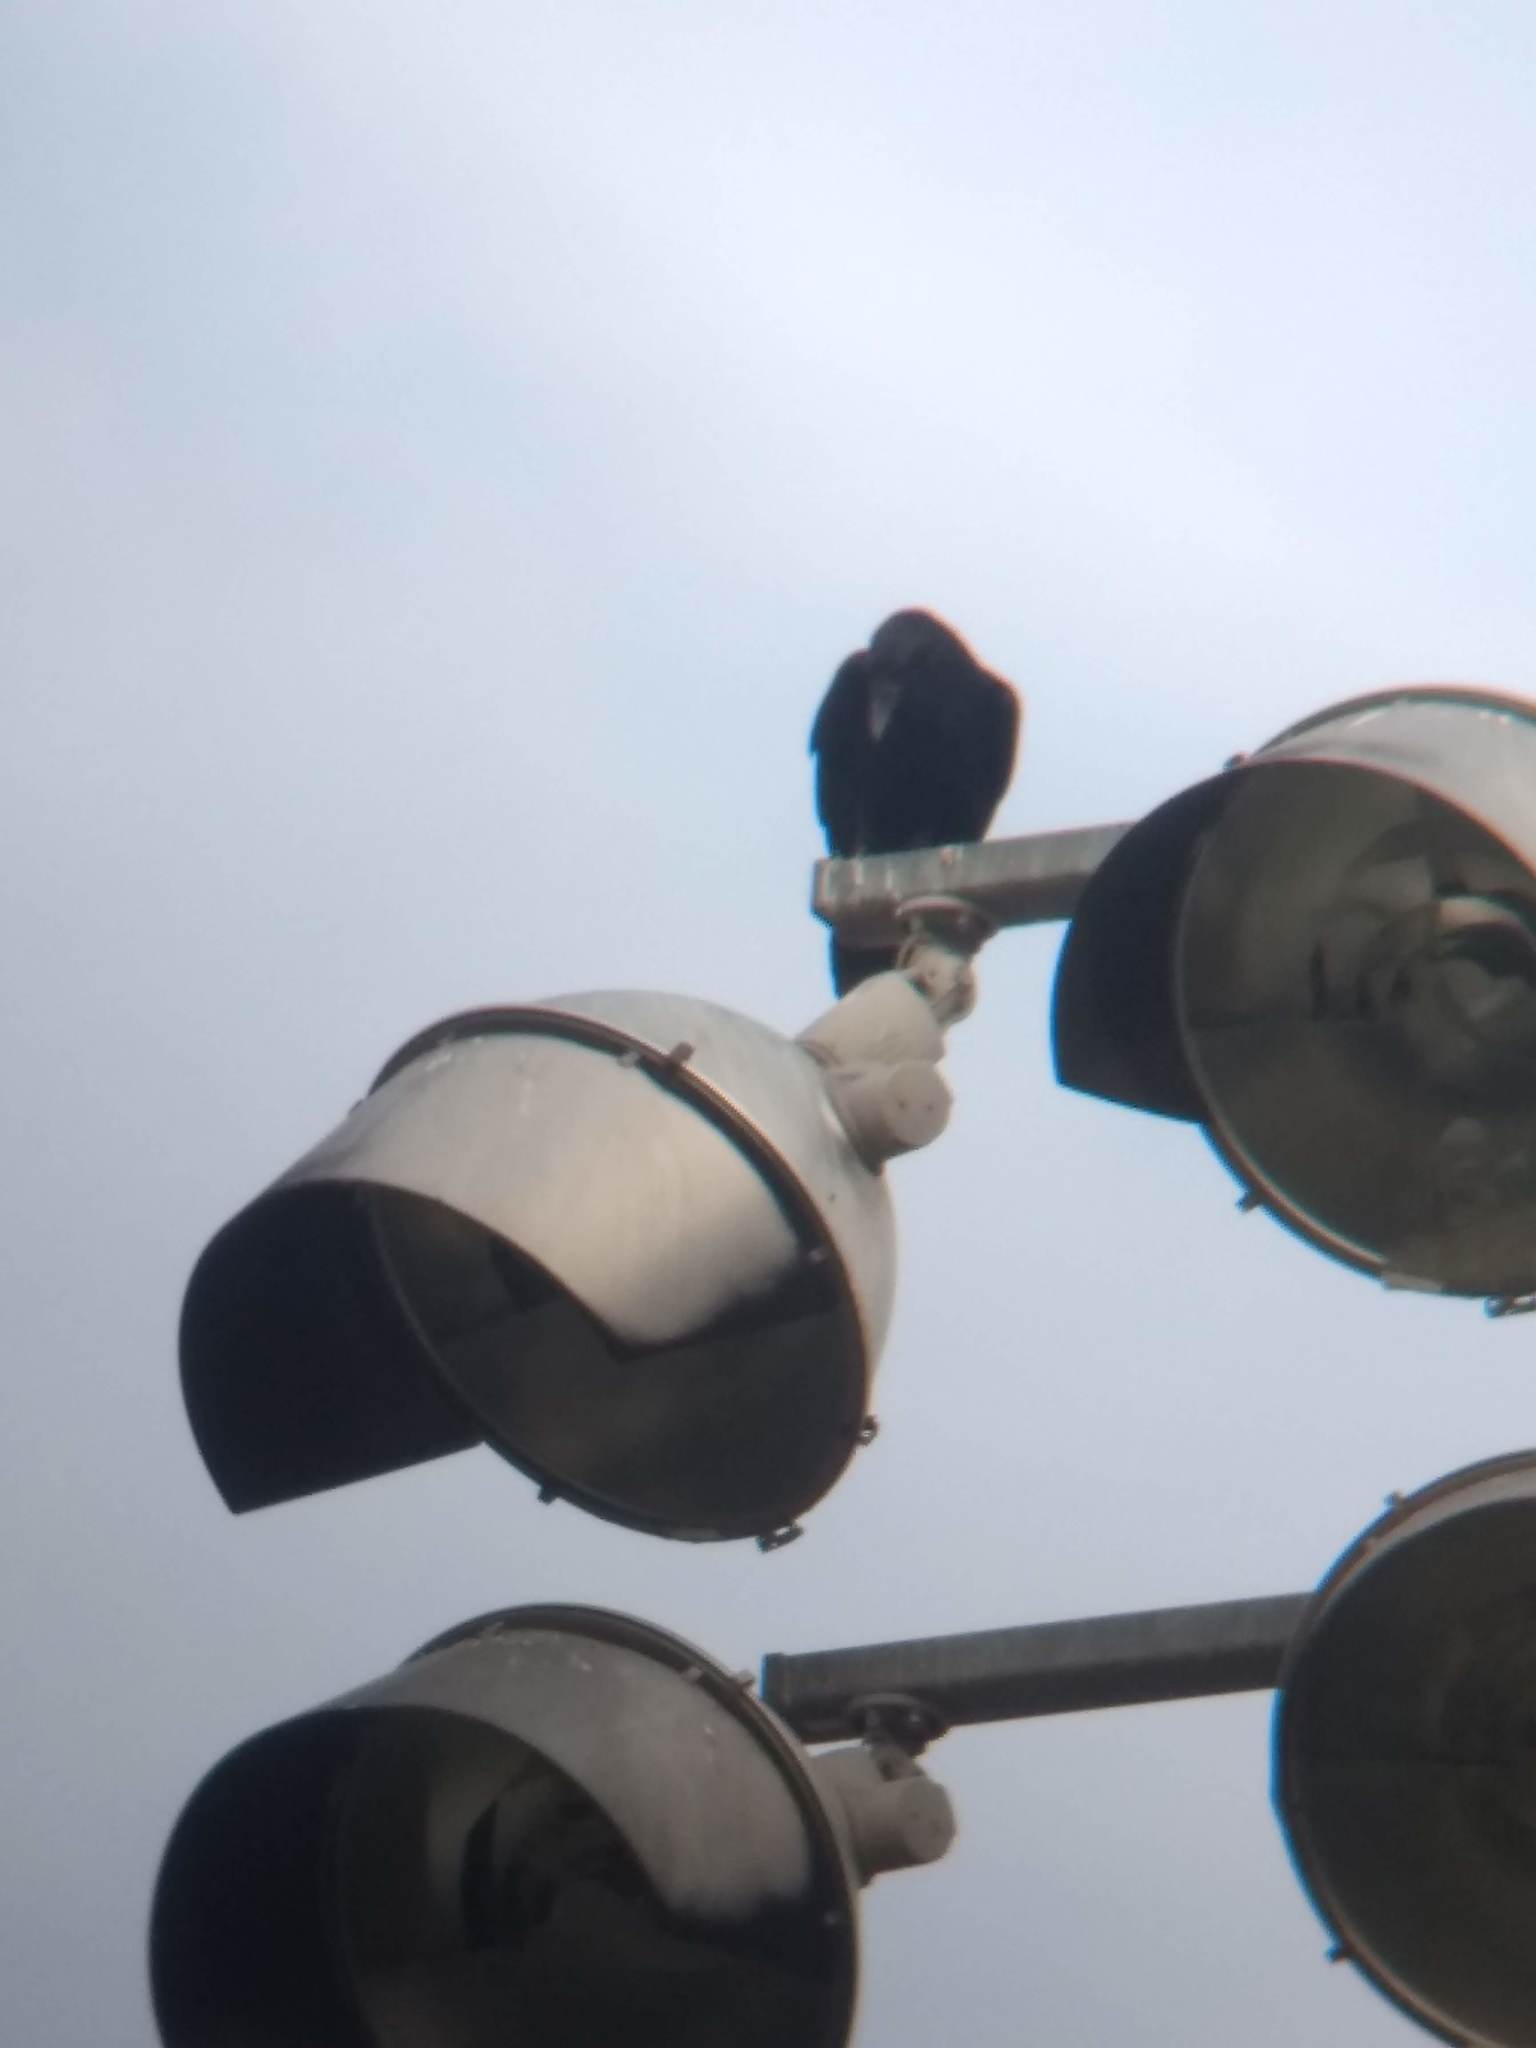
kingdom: Animalia
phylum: Chordata
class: Aves
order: Passeriformes
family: Corvidae
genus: Corvus
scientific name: Corvus corax
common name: Common raven
